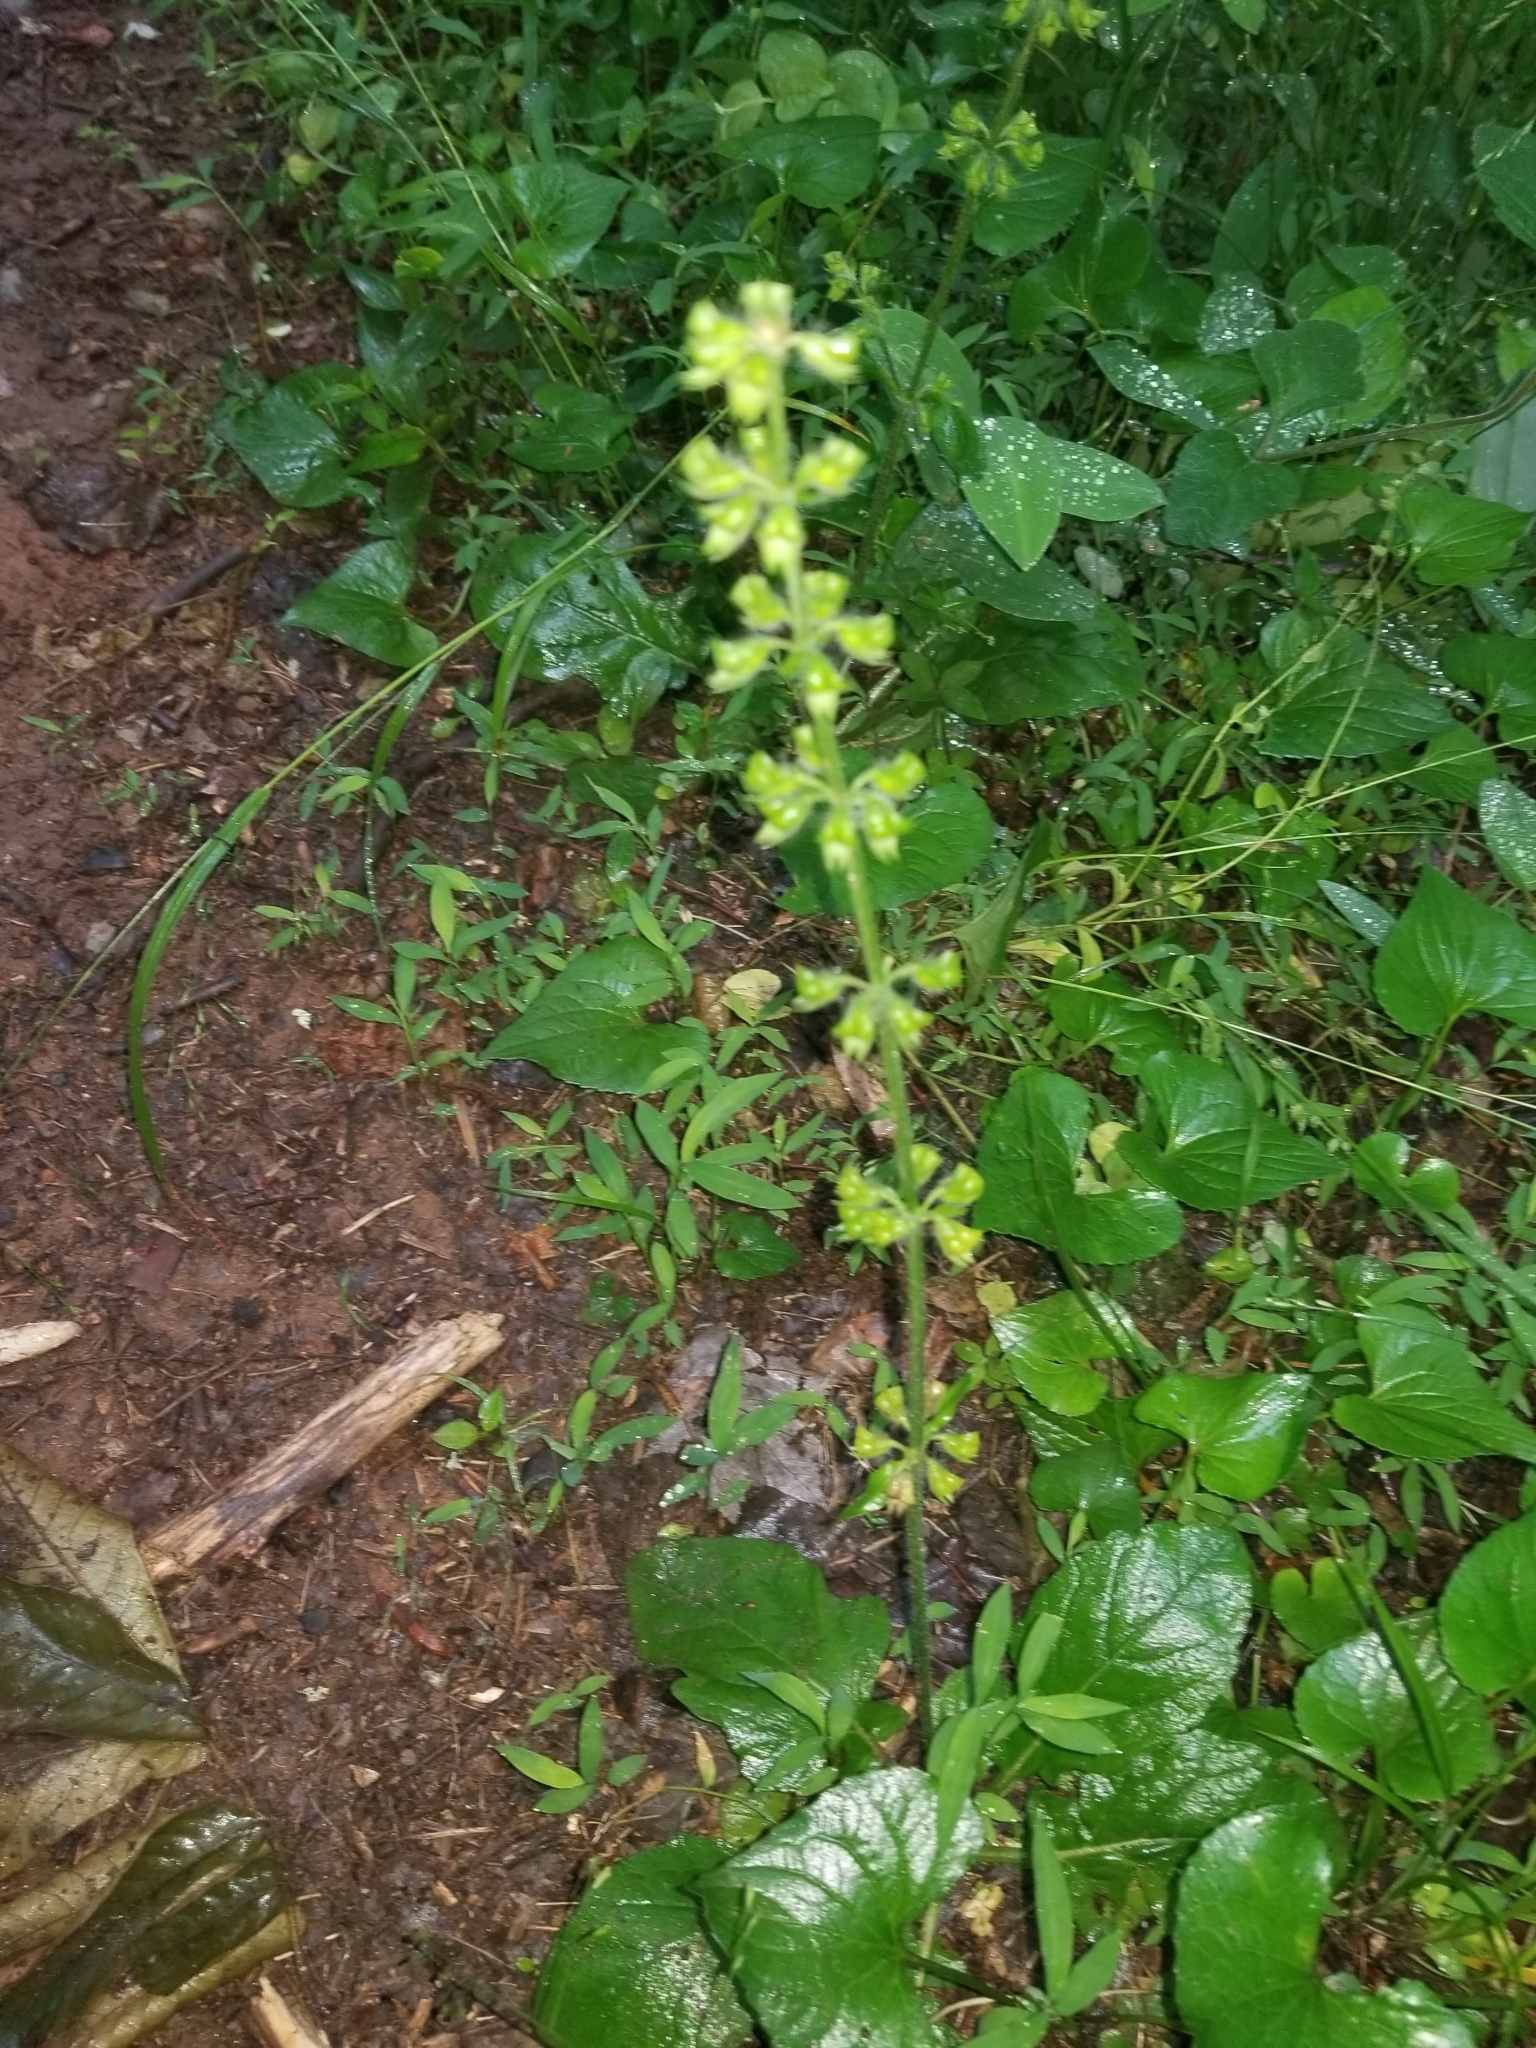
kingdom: Plantae
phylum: Tracheophyta
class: Magnoliopsida
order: Lamiales
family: Lamiaceae
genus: Salvia
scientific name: Salvia lyrata
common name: Cancerweed
